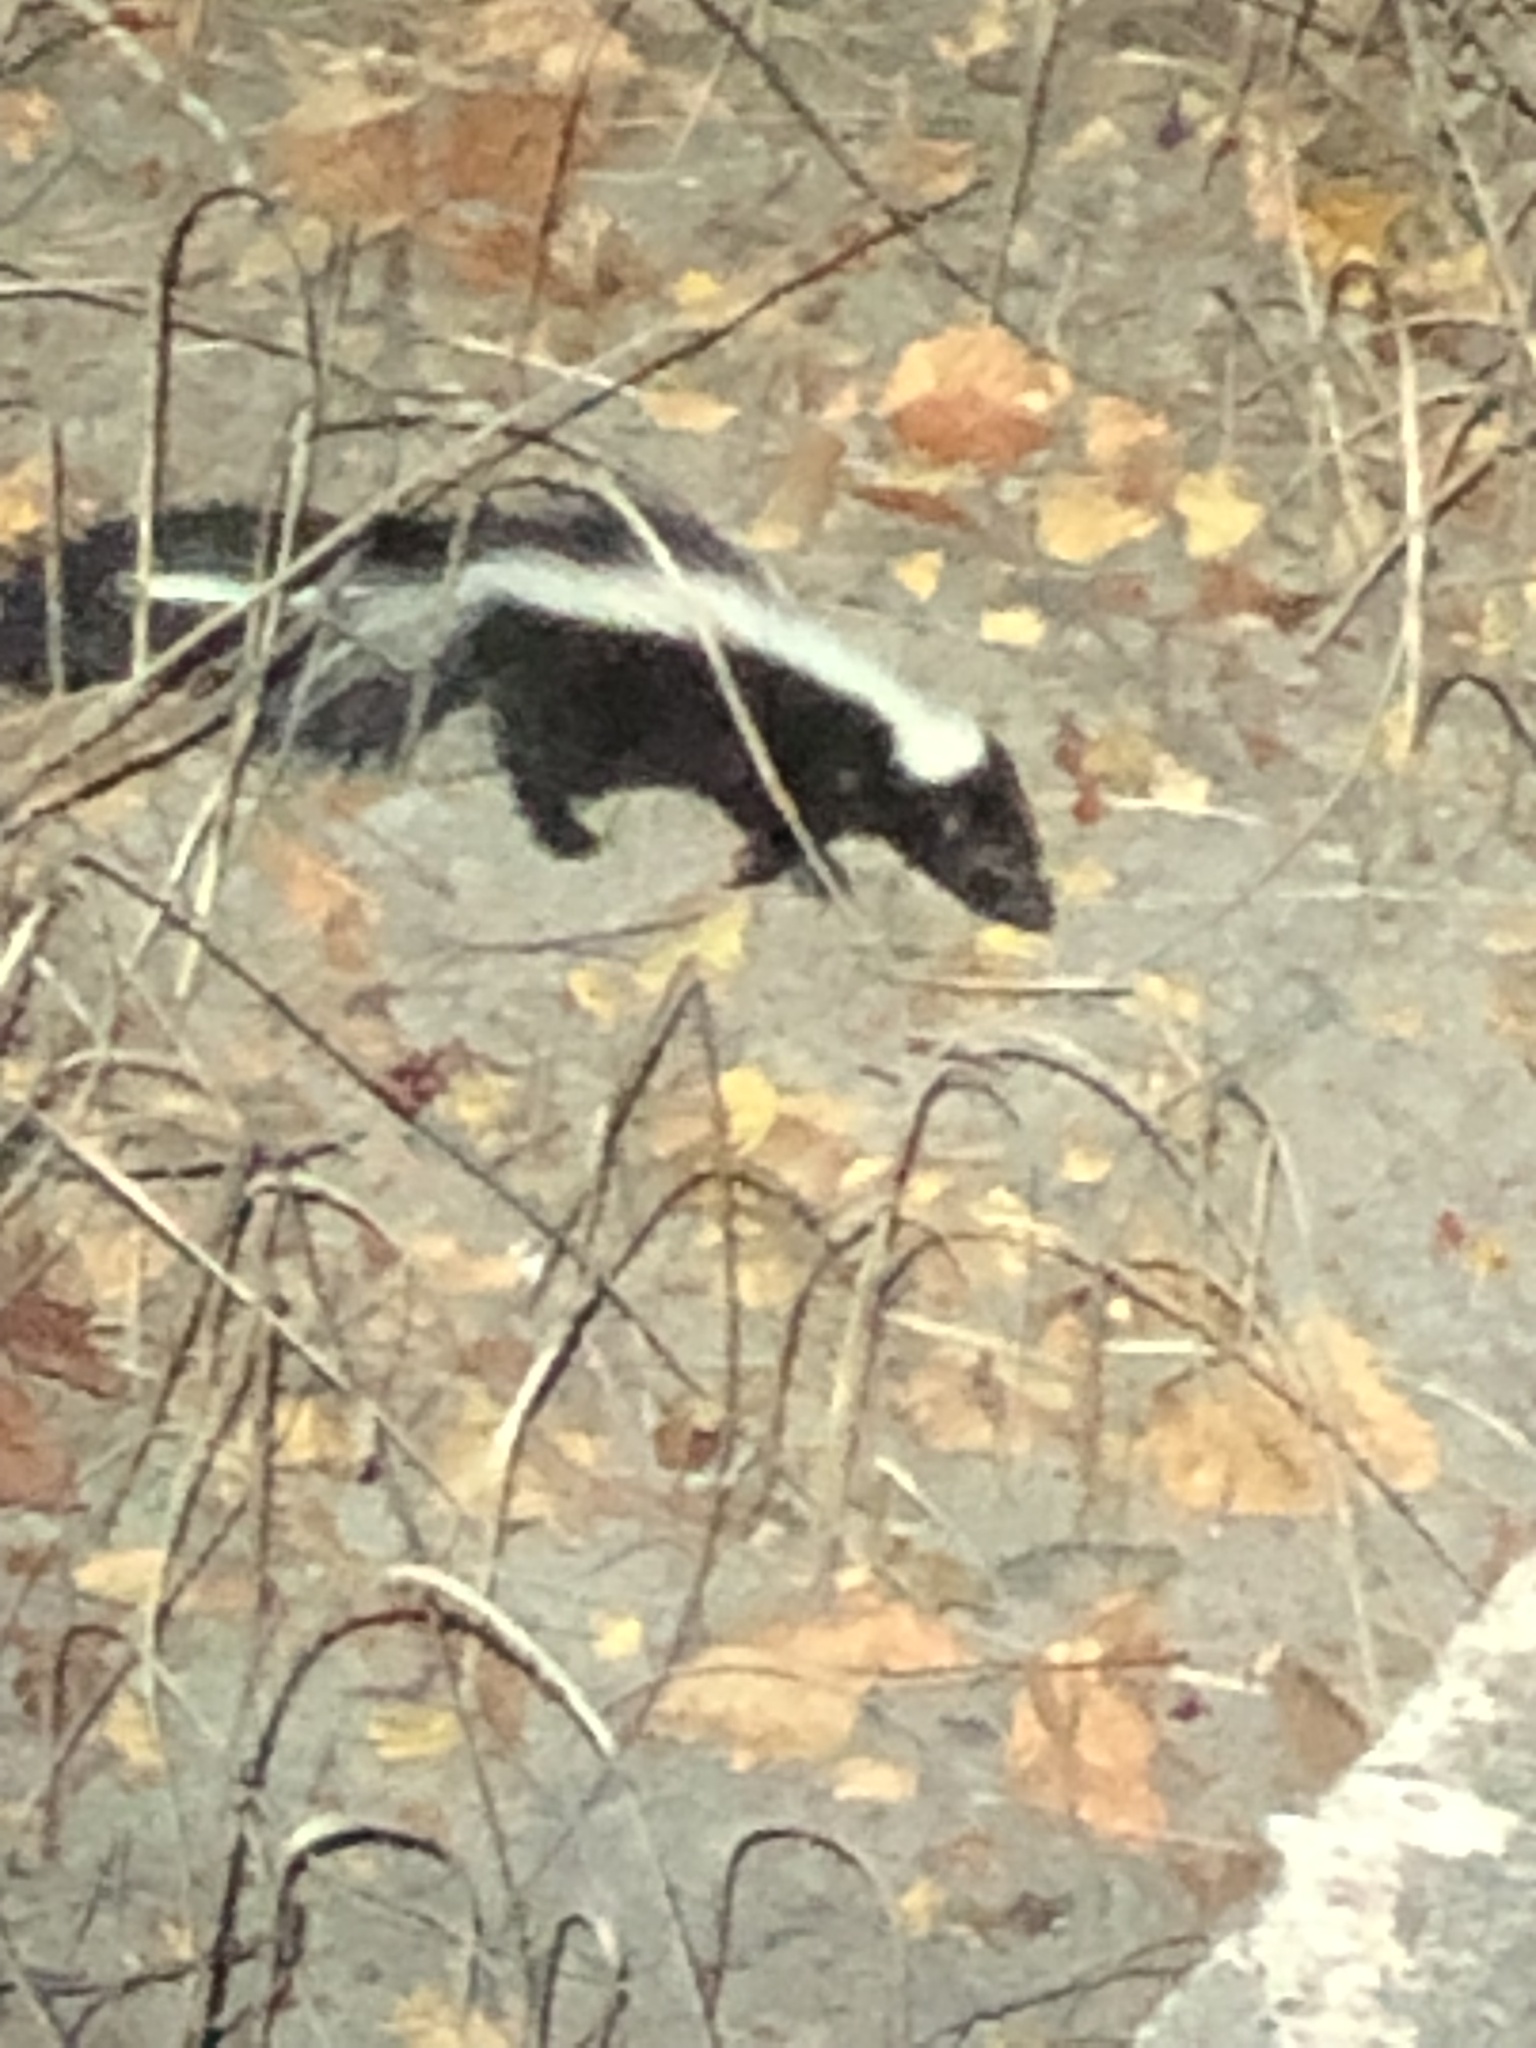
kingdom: Animalia
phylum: Chordata
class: Mammalia
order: Carnivora
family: Mephitidae
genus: Mephitis
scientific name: Mephitis mephitis
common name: Striped skunk
